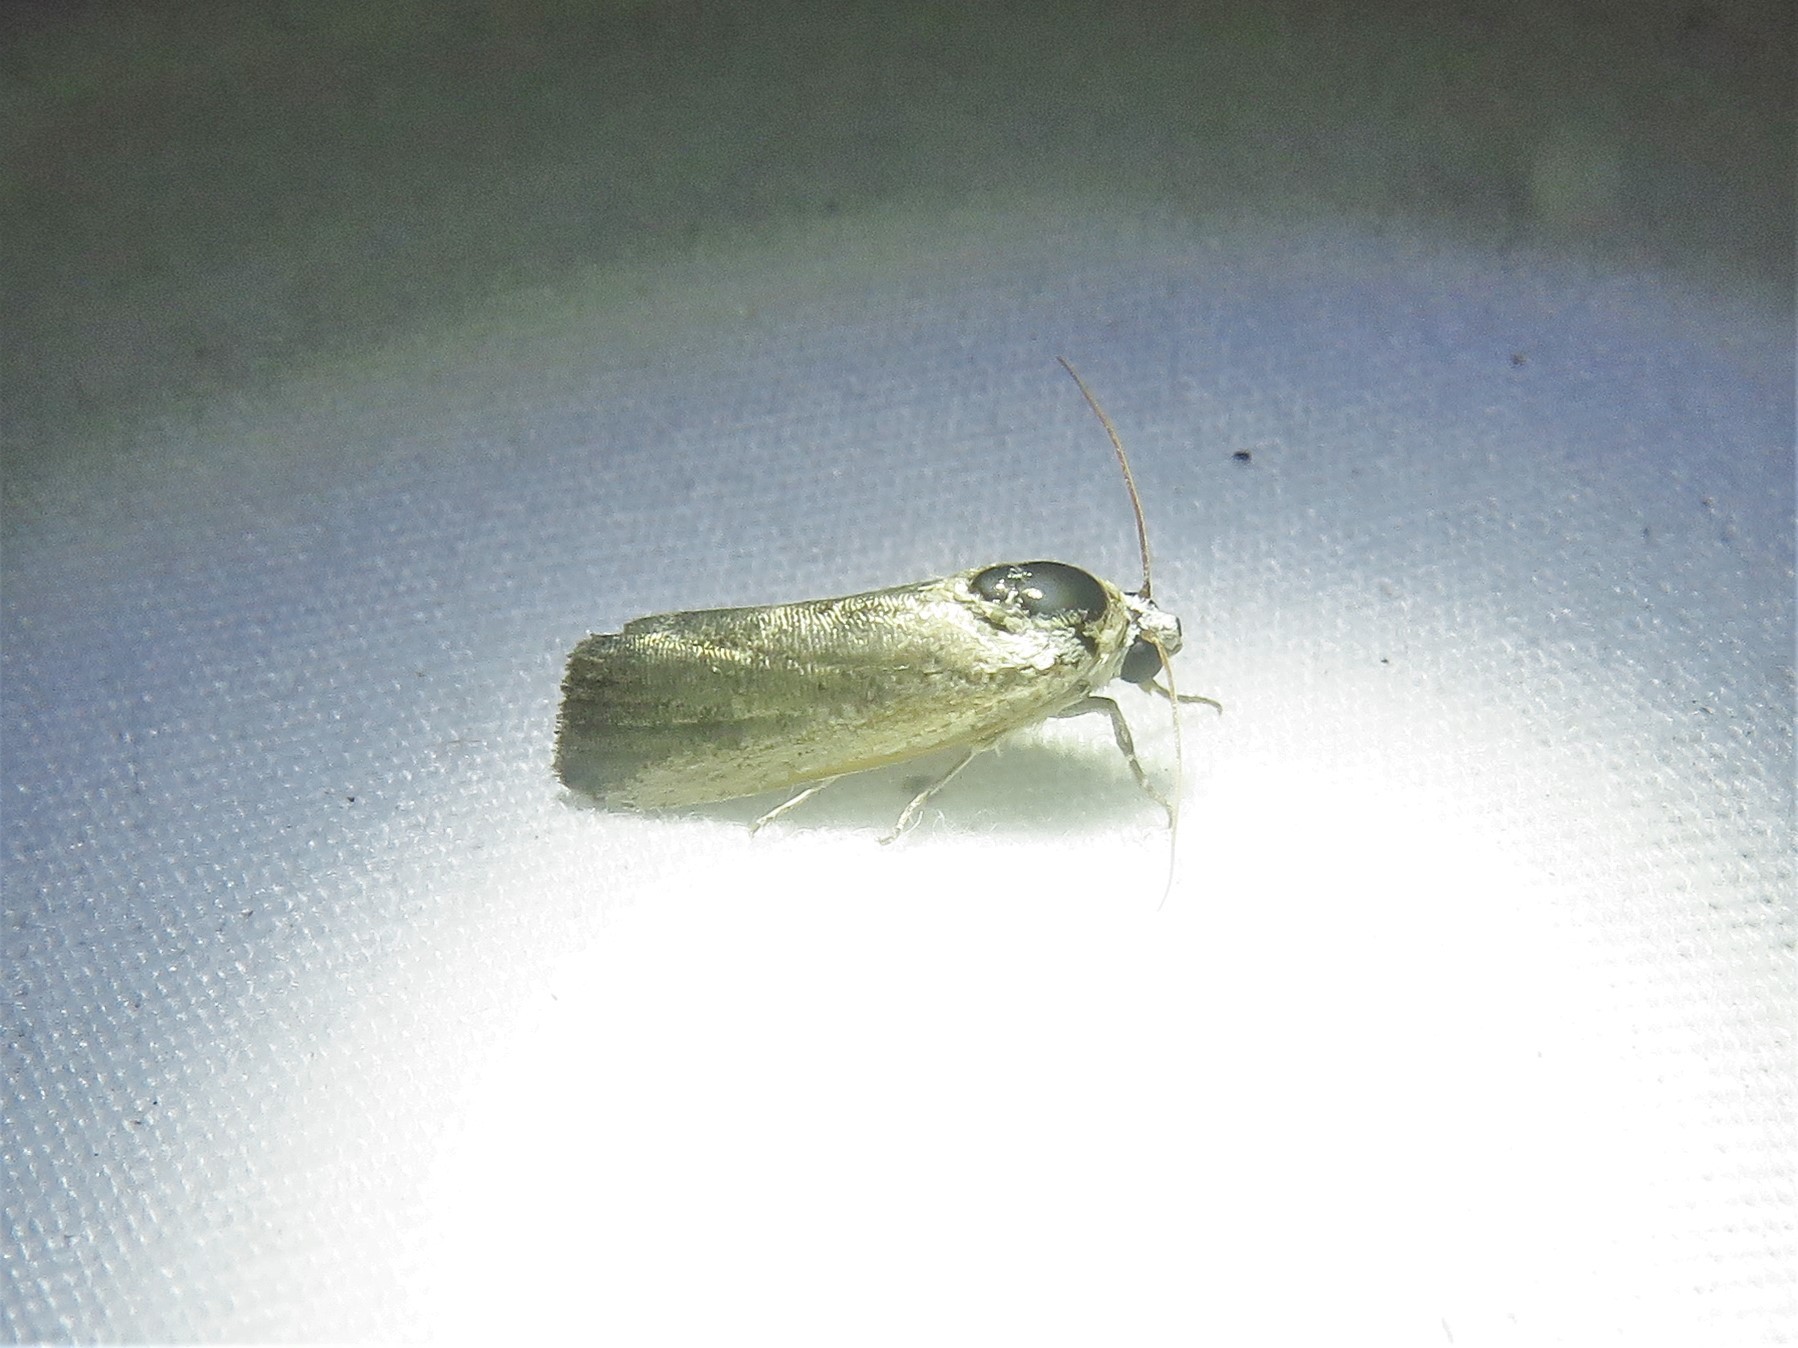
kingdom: Animalia
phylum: Arthropoda
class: Insecta
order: Lepidoptera
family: Noctuidae
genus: Acontia
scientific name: Acontia fasciatella
